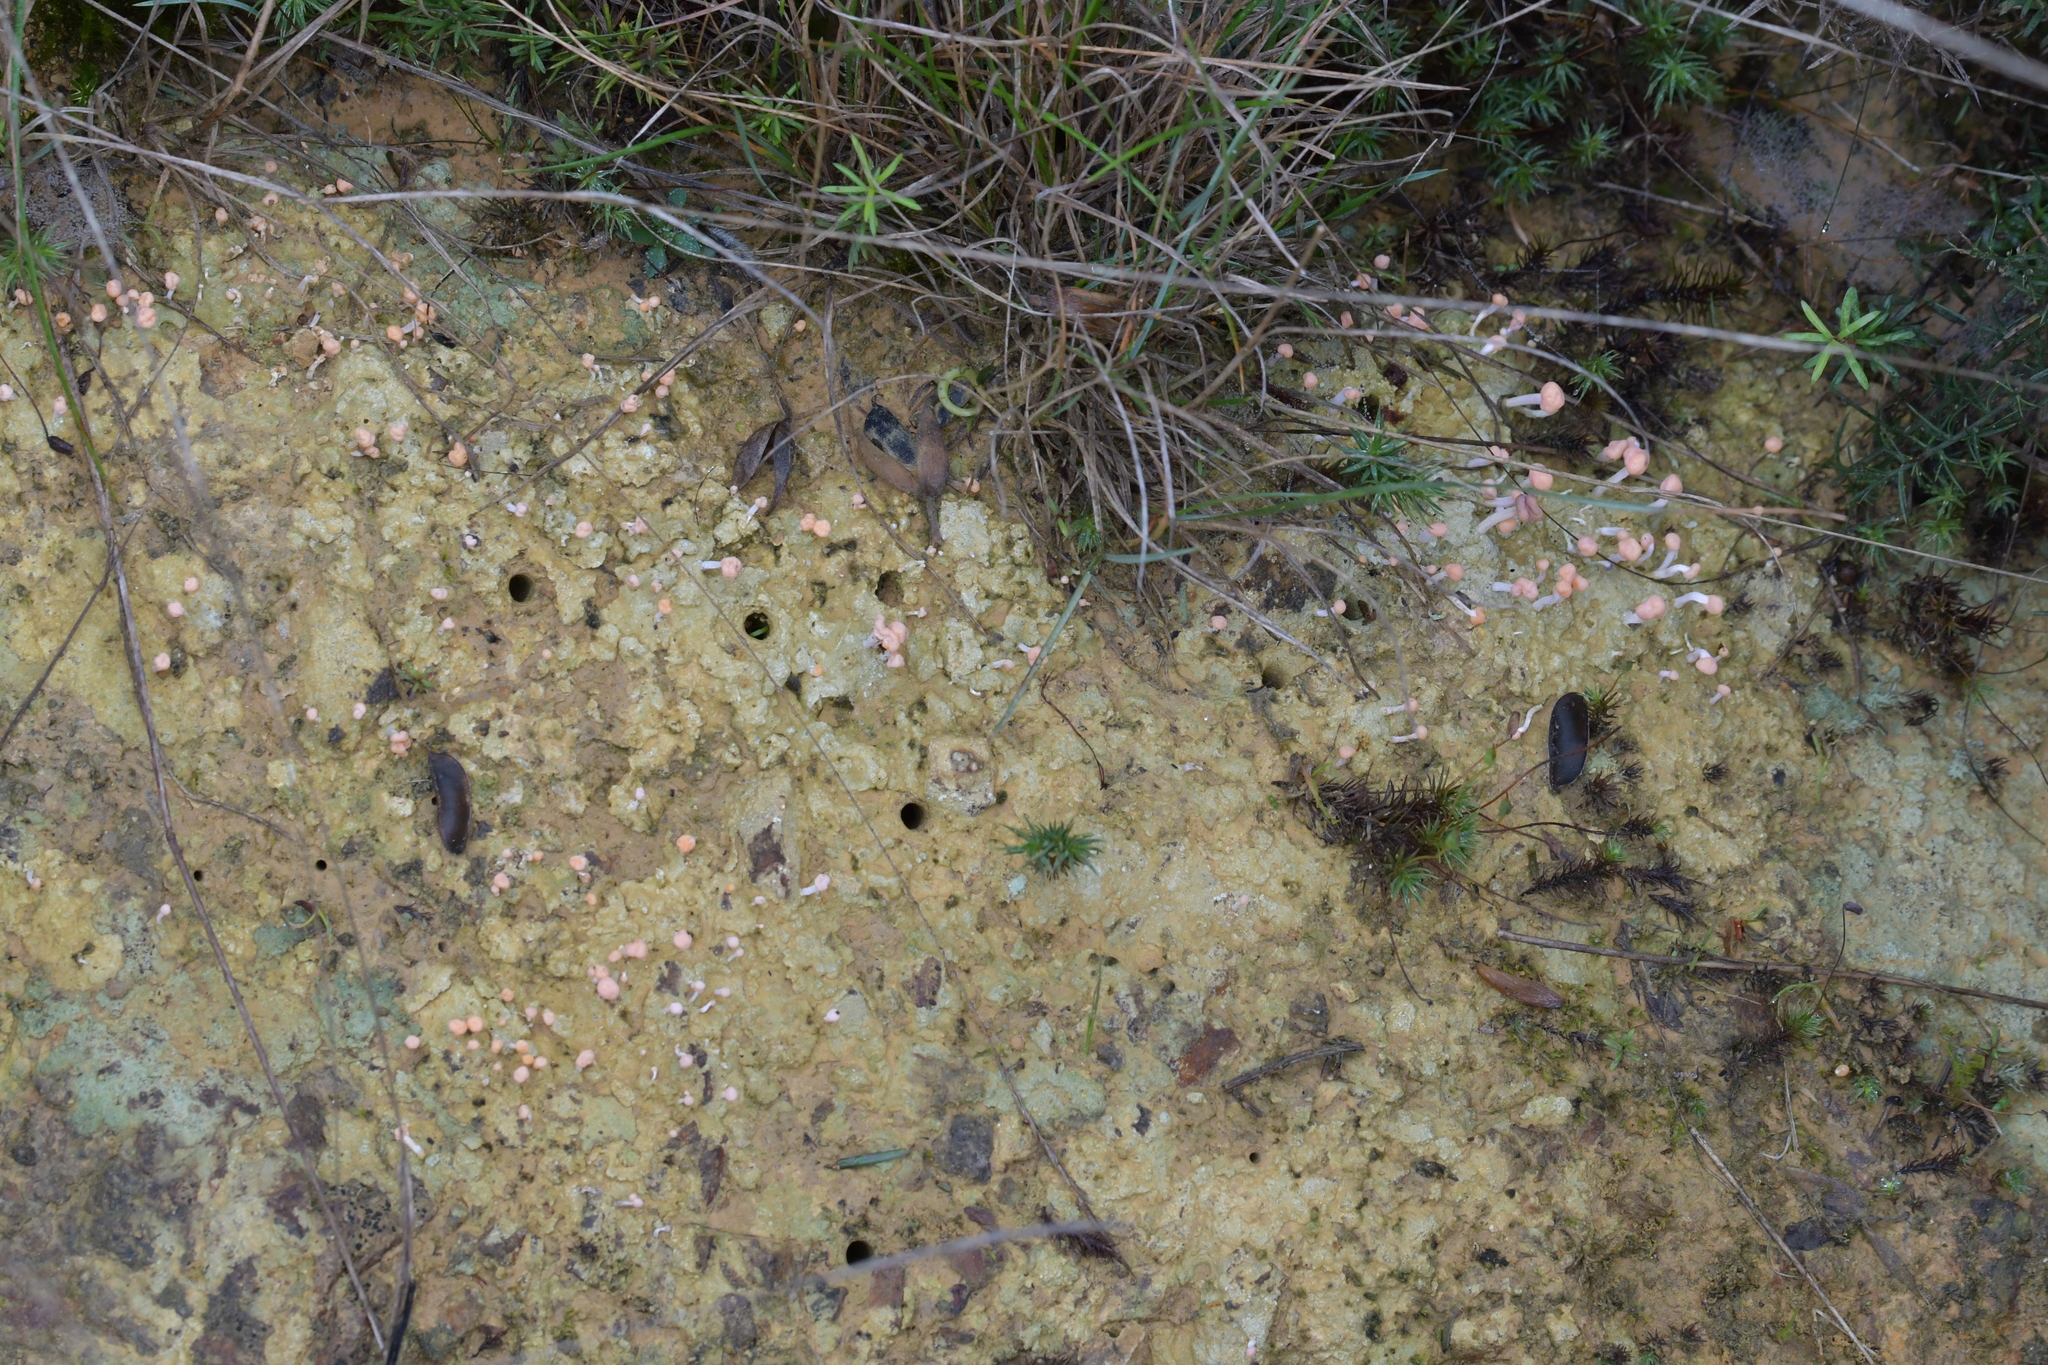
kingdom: Fungi
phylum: Ascomycota
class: Lecanoromycetes
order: Pertusariales
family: Icmadophilaceae
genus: Dibaeis
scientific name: Dibaeis arcuata
